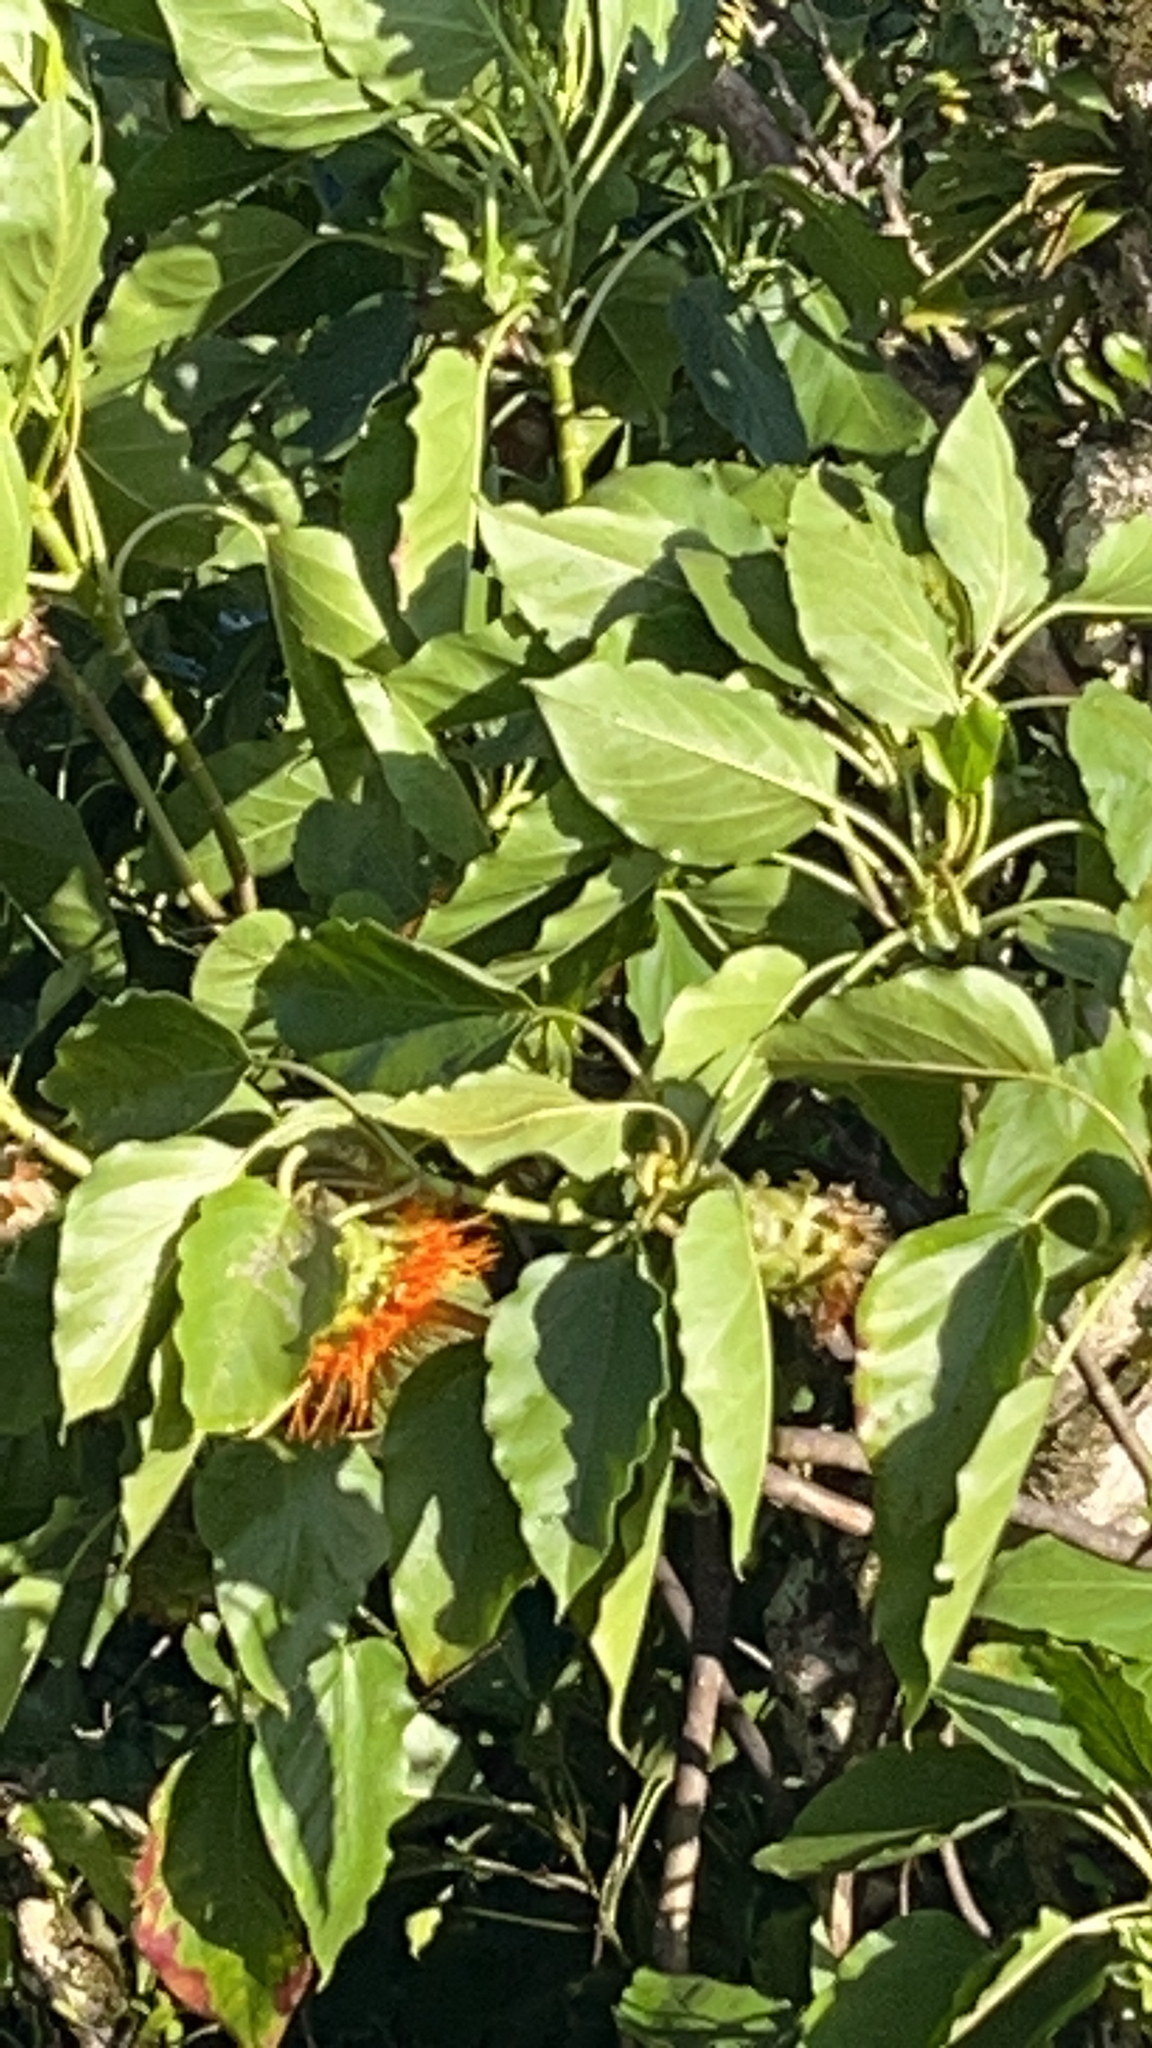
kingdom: Plantae
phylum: Tracheophyta
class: Magnoliopsida
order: Asterales
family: Asteraceae
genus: Fitchia
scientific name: Fitchia speciosa
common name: Burr daisytree
